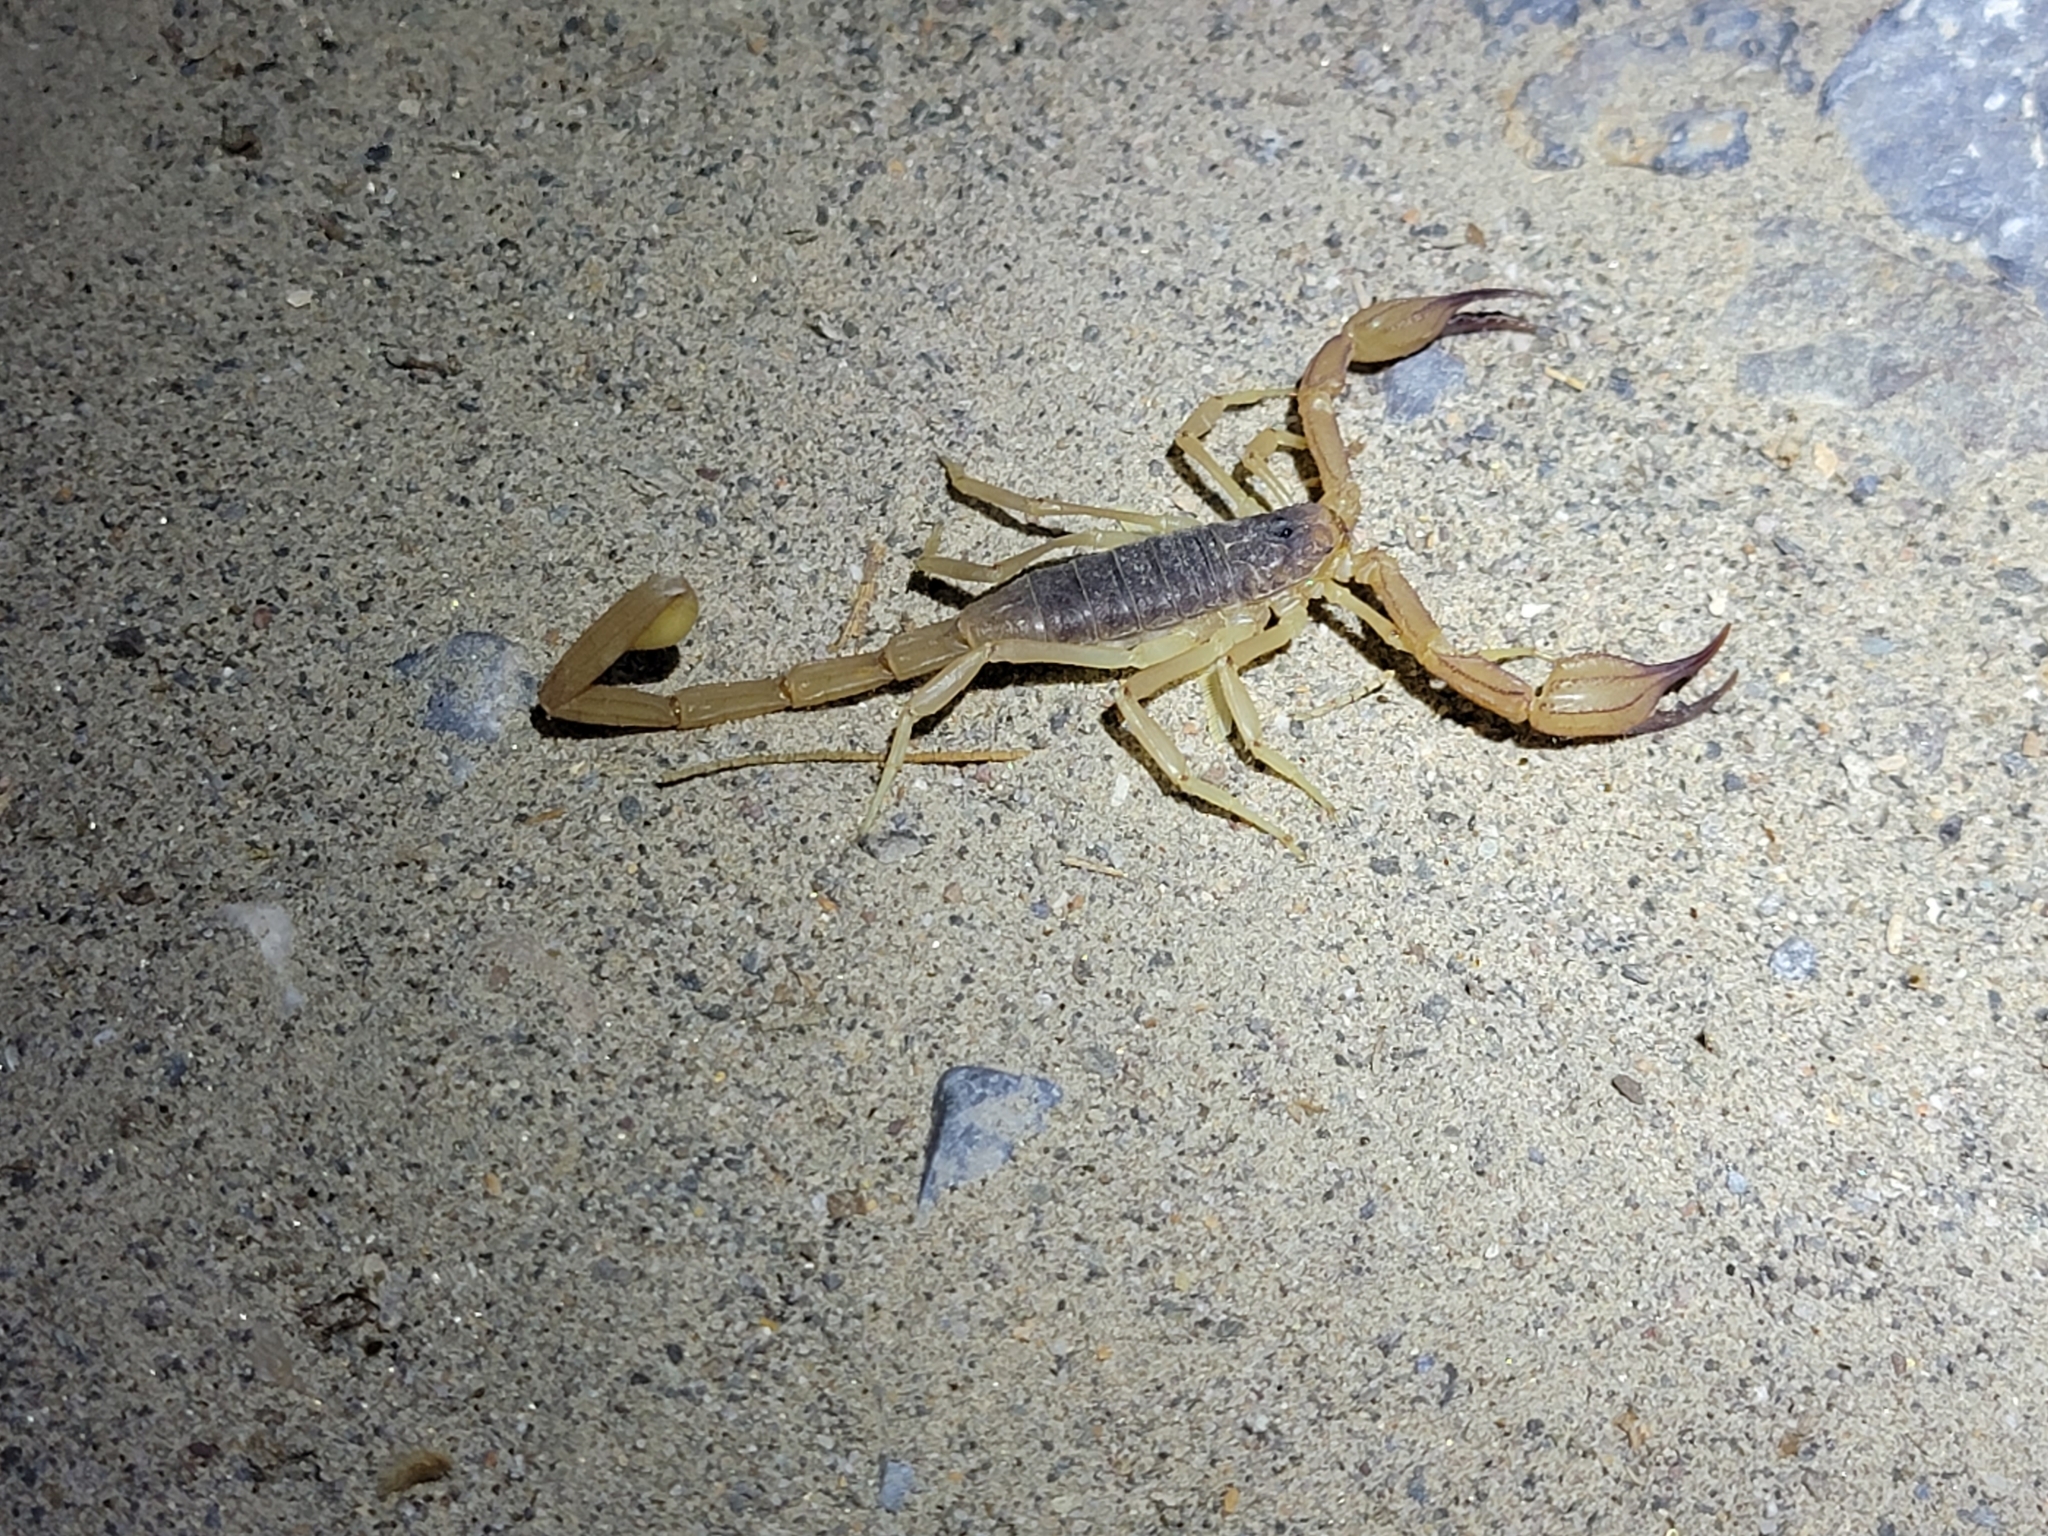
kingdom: Animalia
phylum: Arthropoda
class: Arachnida
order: Scorpiones
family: Vaejovidae
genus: Smeringurus
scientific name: Smeringurus vachoni
